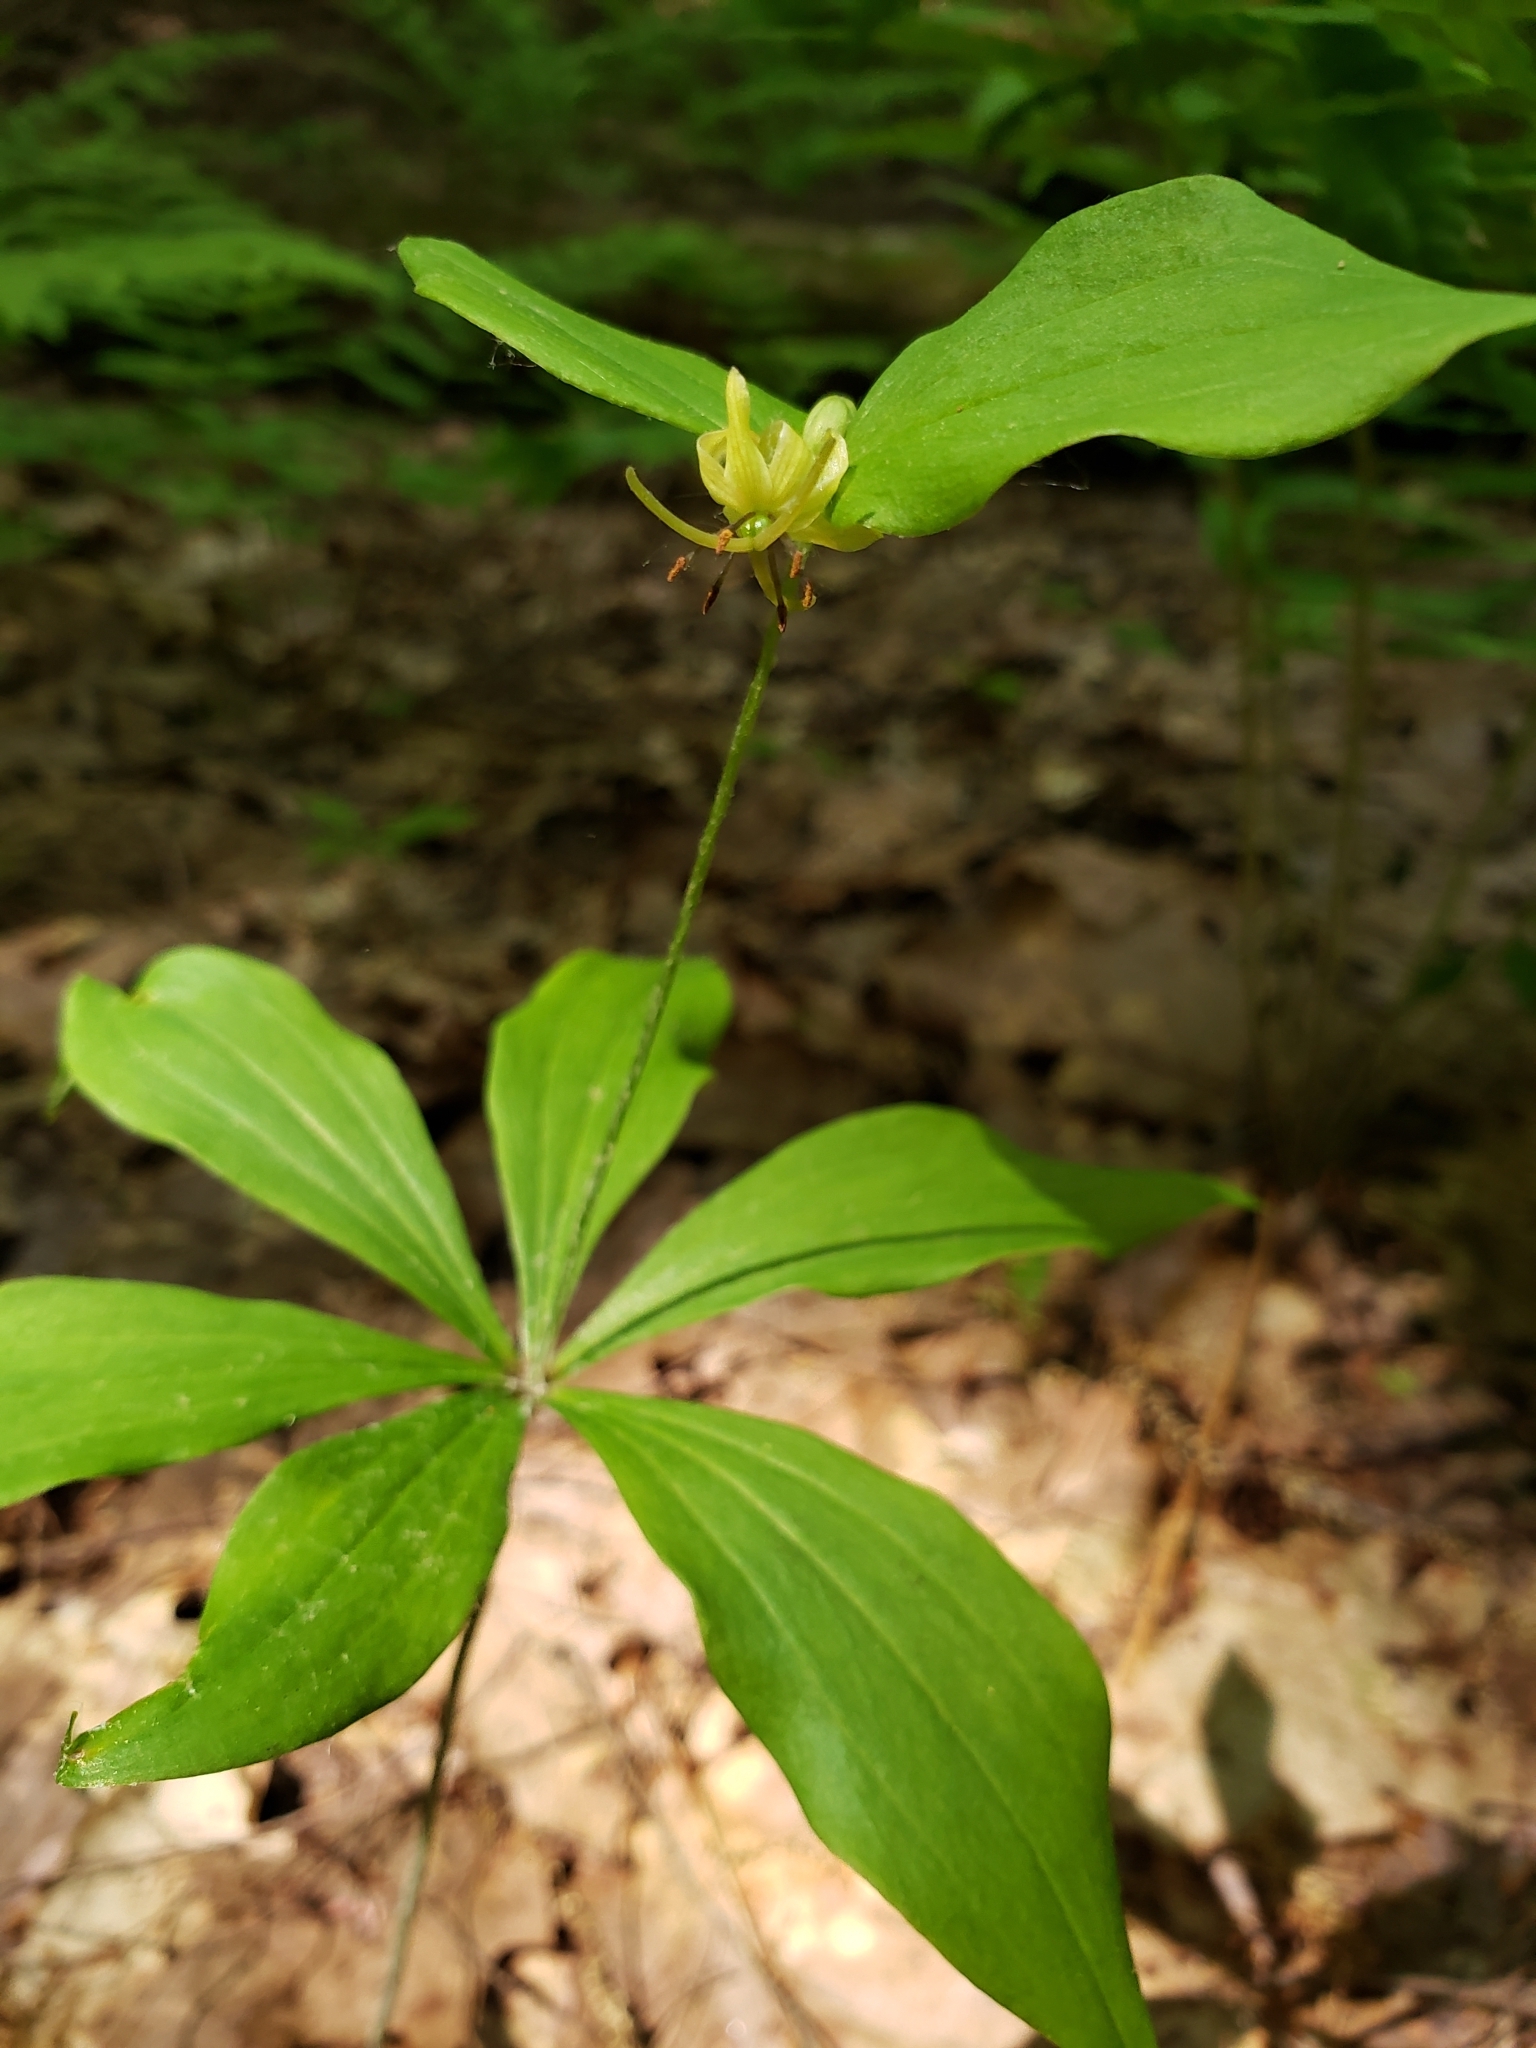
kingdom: Plantae
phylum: Tracheophyta
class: Liliopsida
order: Liliales
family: Liliaceae
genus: Medeola
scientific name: Medeola virginiana
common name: Indian cucumber-root
